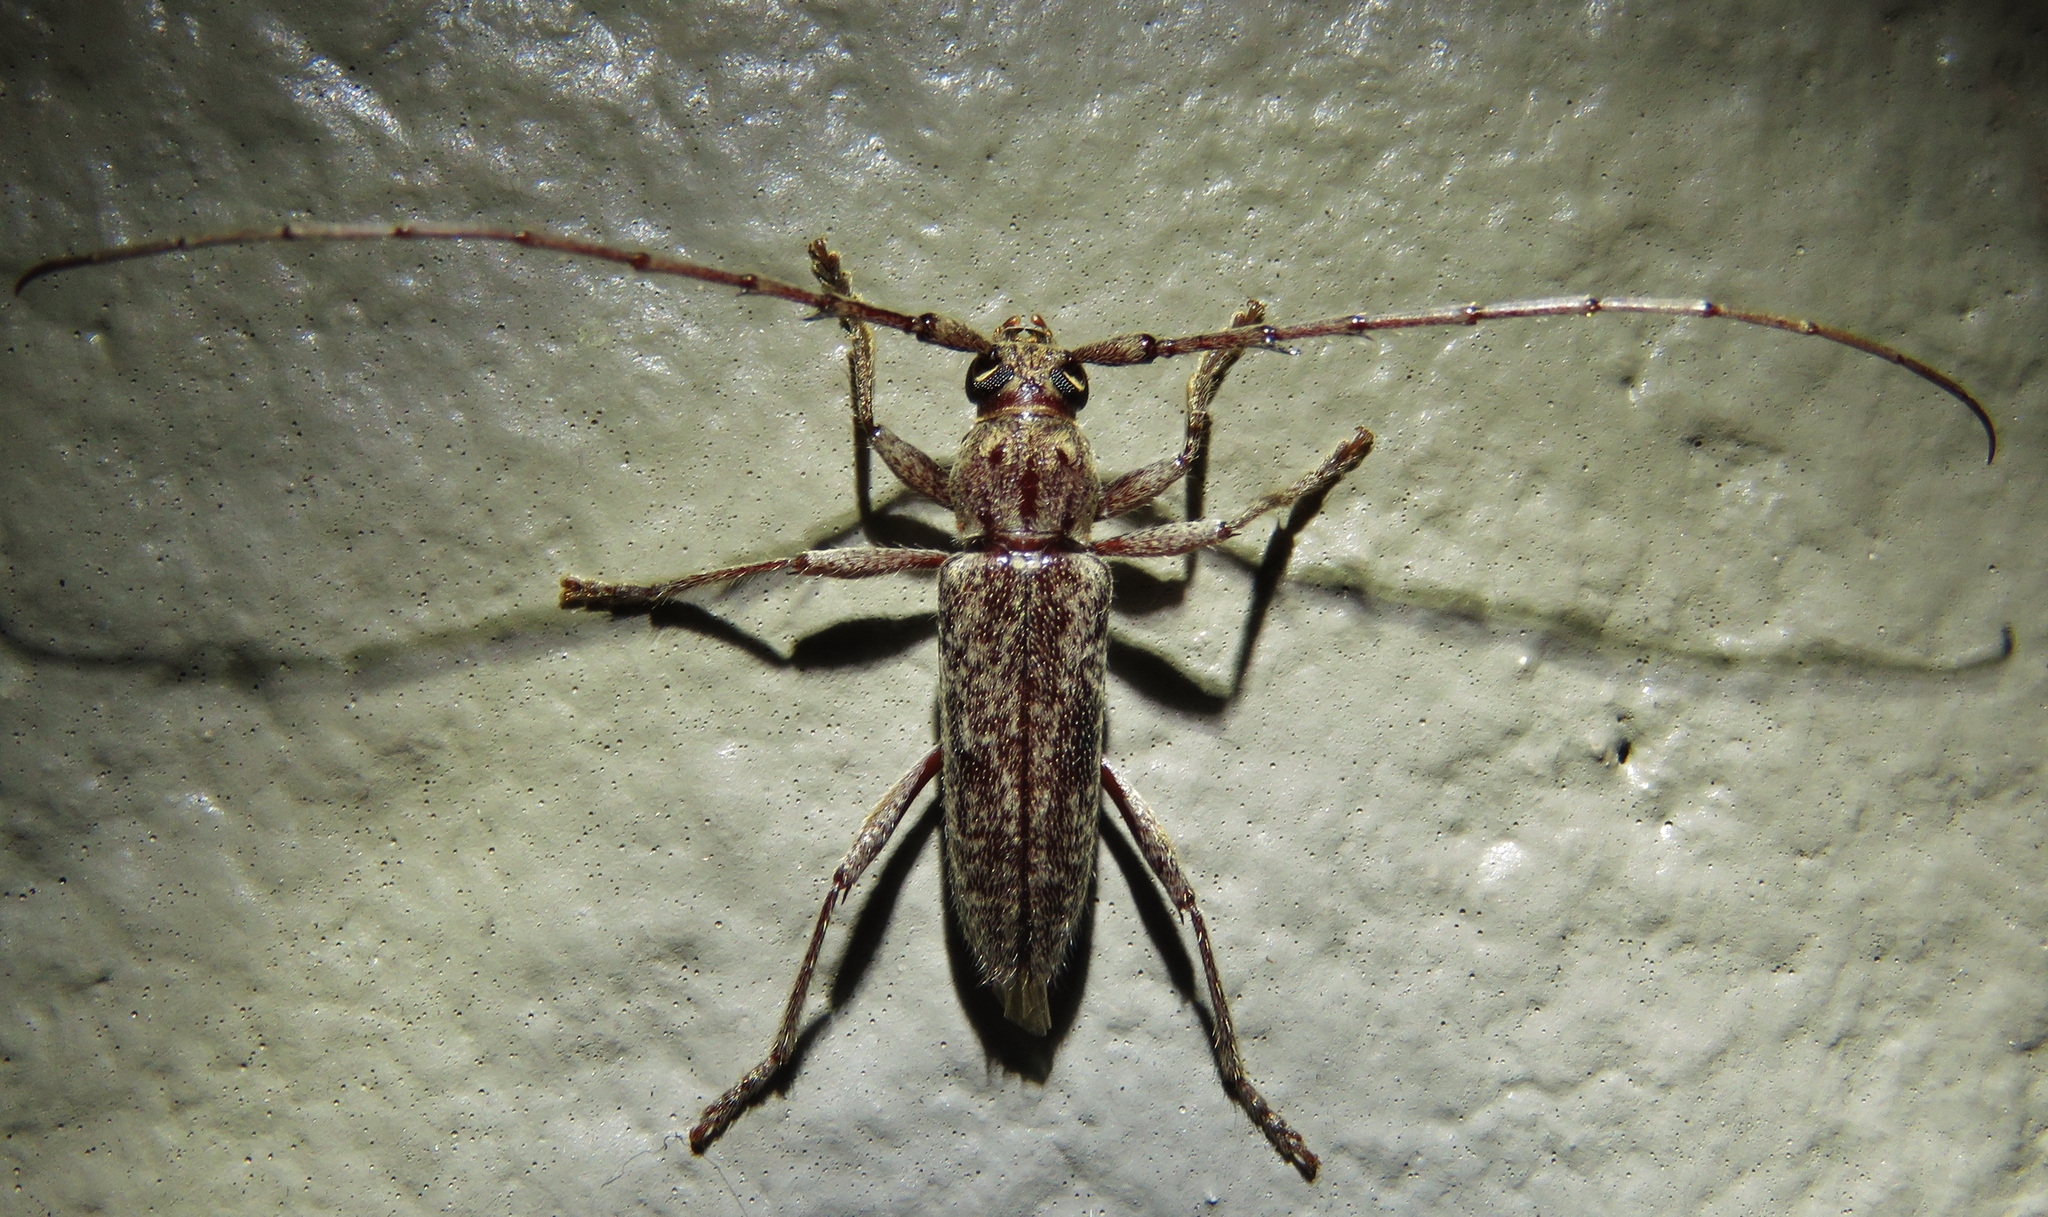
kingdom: Animalia
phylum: Arthropoda
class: Insecta
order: Coleoptera
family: Cerambycidae
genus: Elaphidion
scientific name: Elaphidion mucronatum
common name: Spined oak borer
